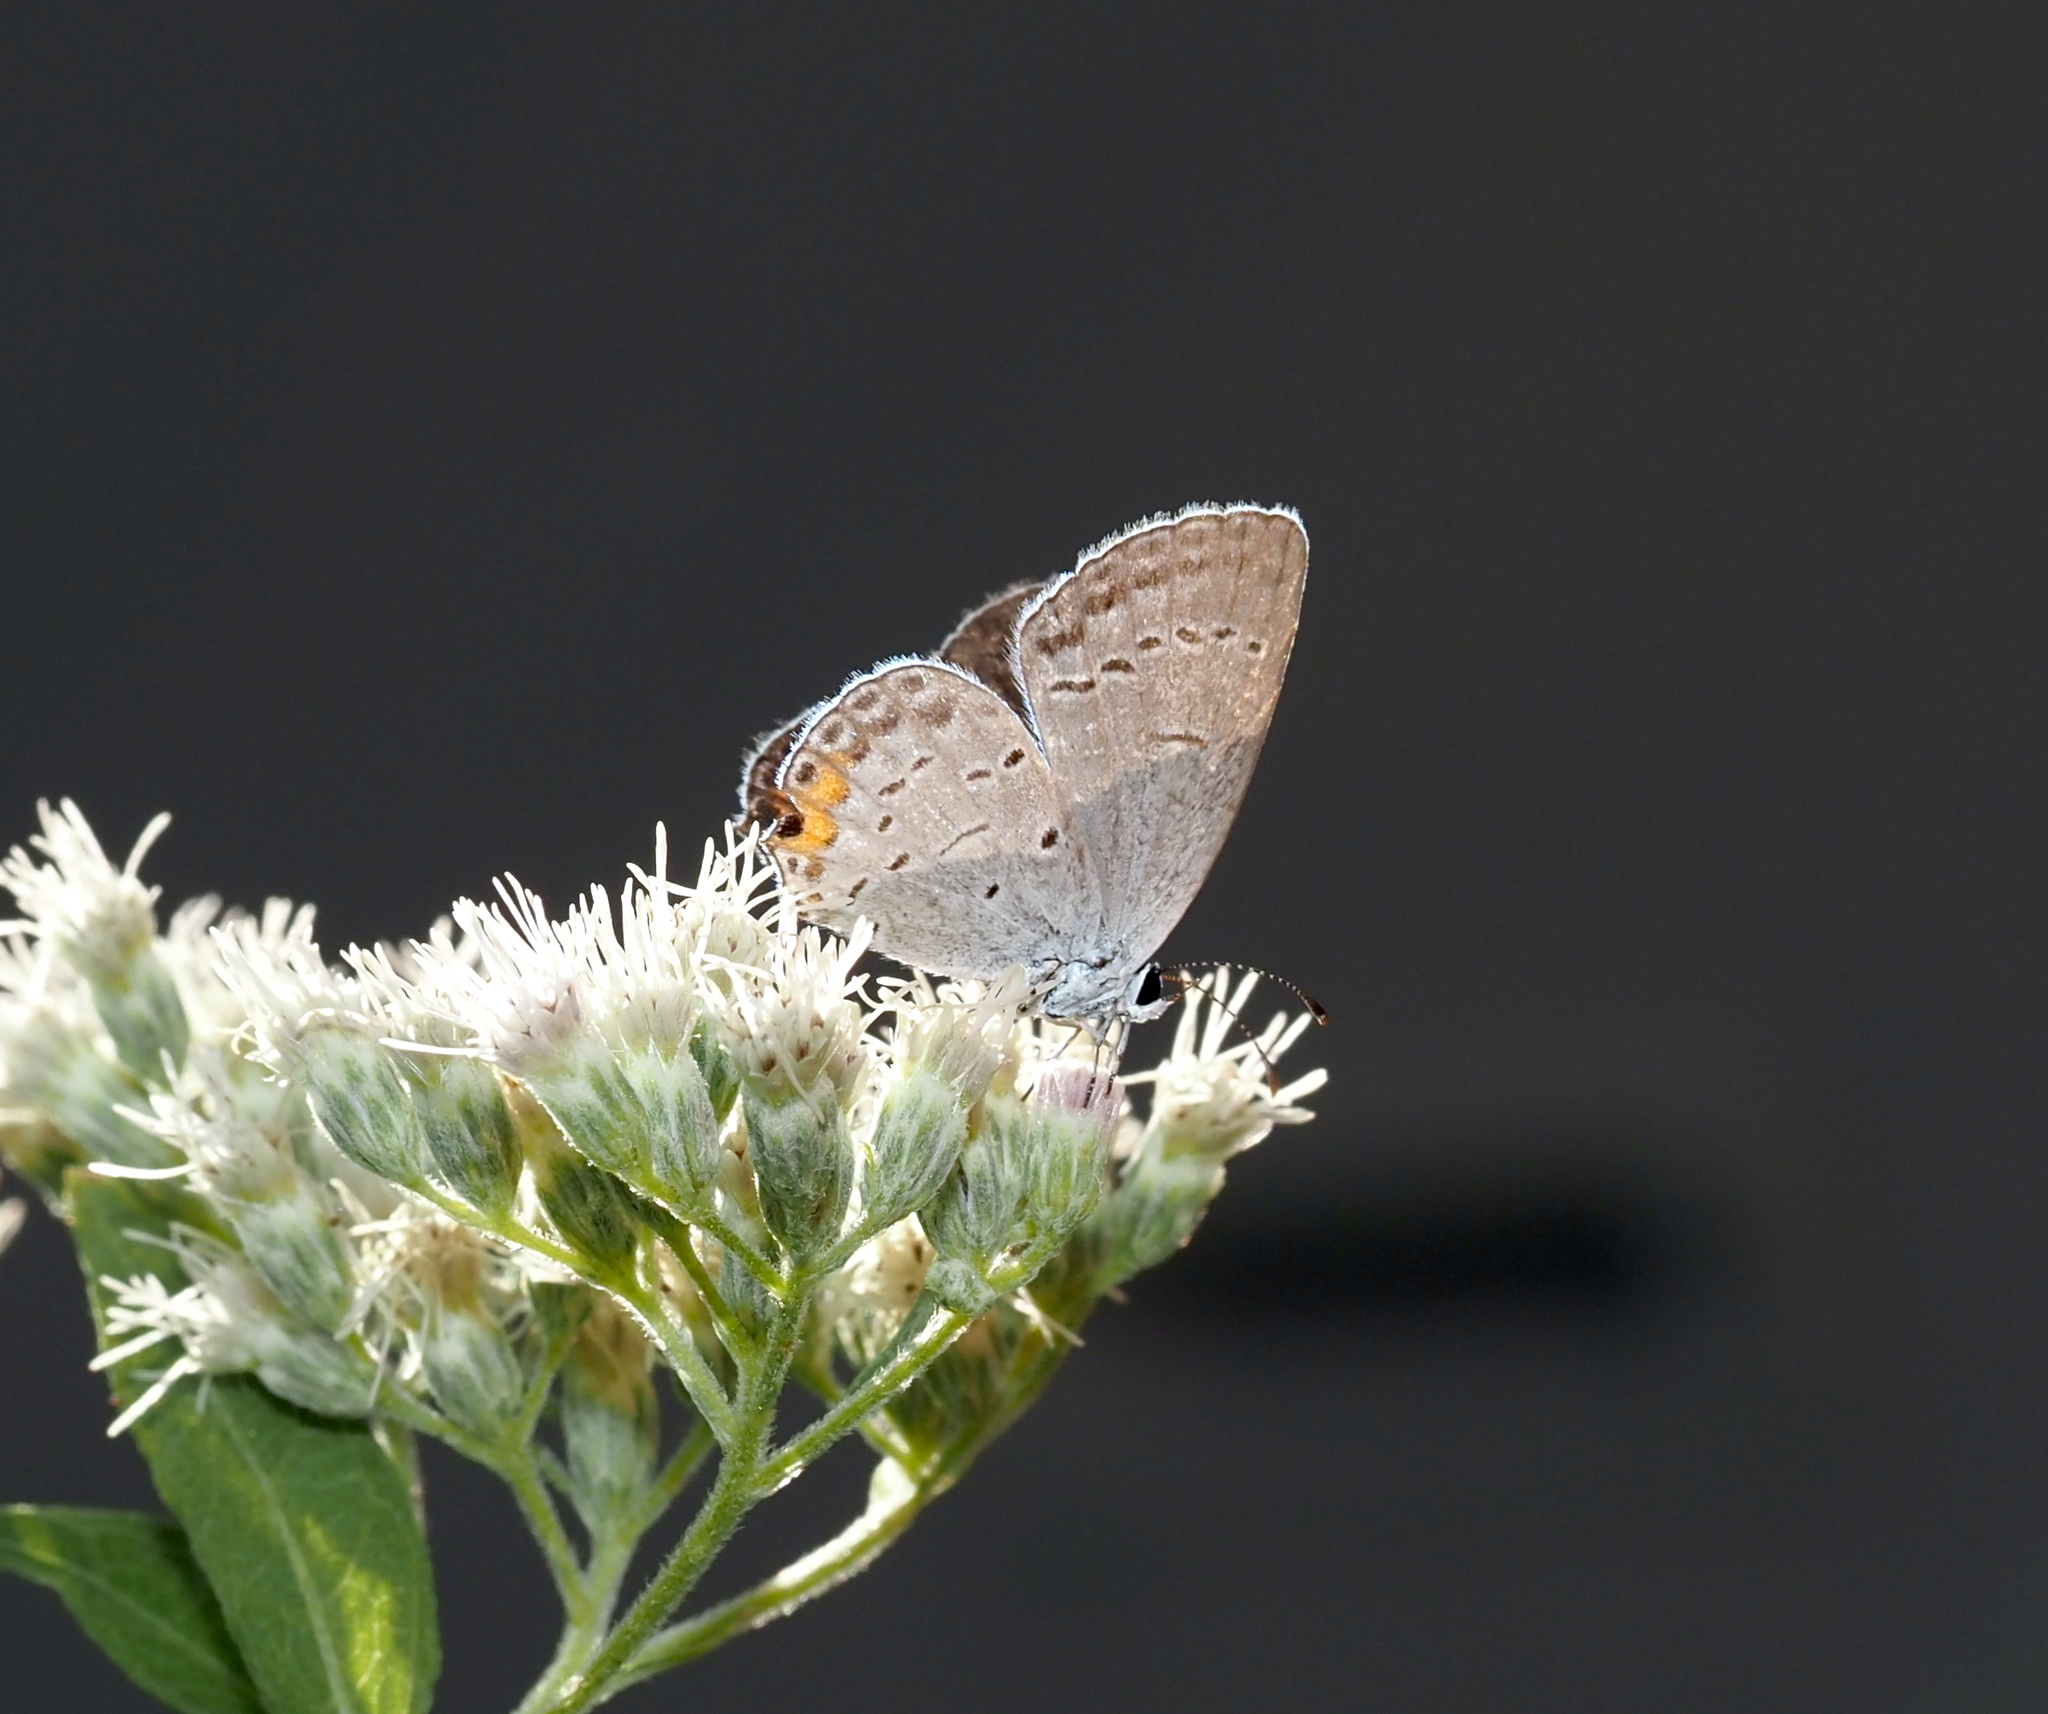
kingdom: Animalia
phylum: Arthropoda
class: Insecta
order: Lepidoptera
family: Lycaenidae
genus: Elkalyce
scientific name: Elkalyce comyntas
